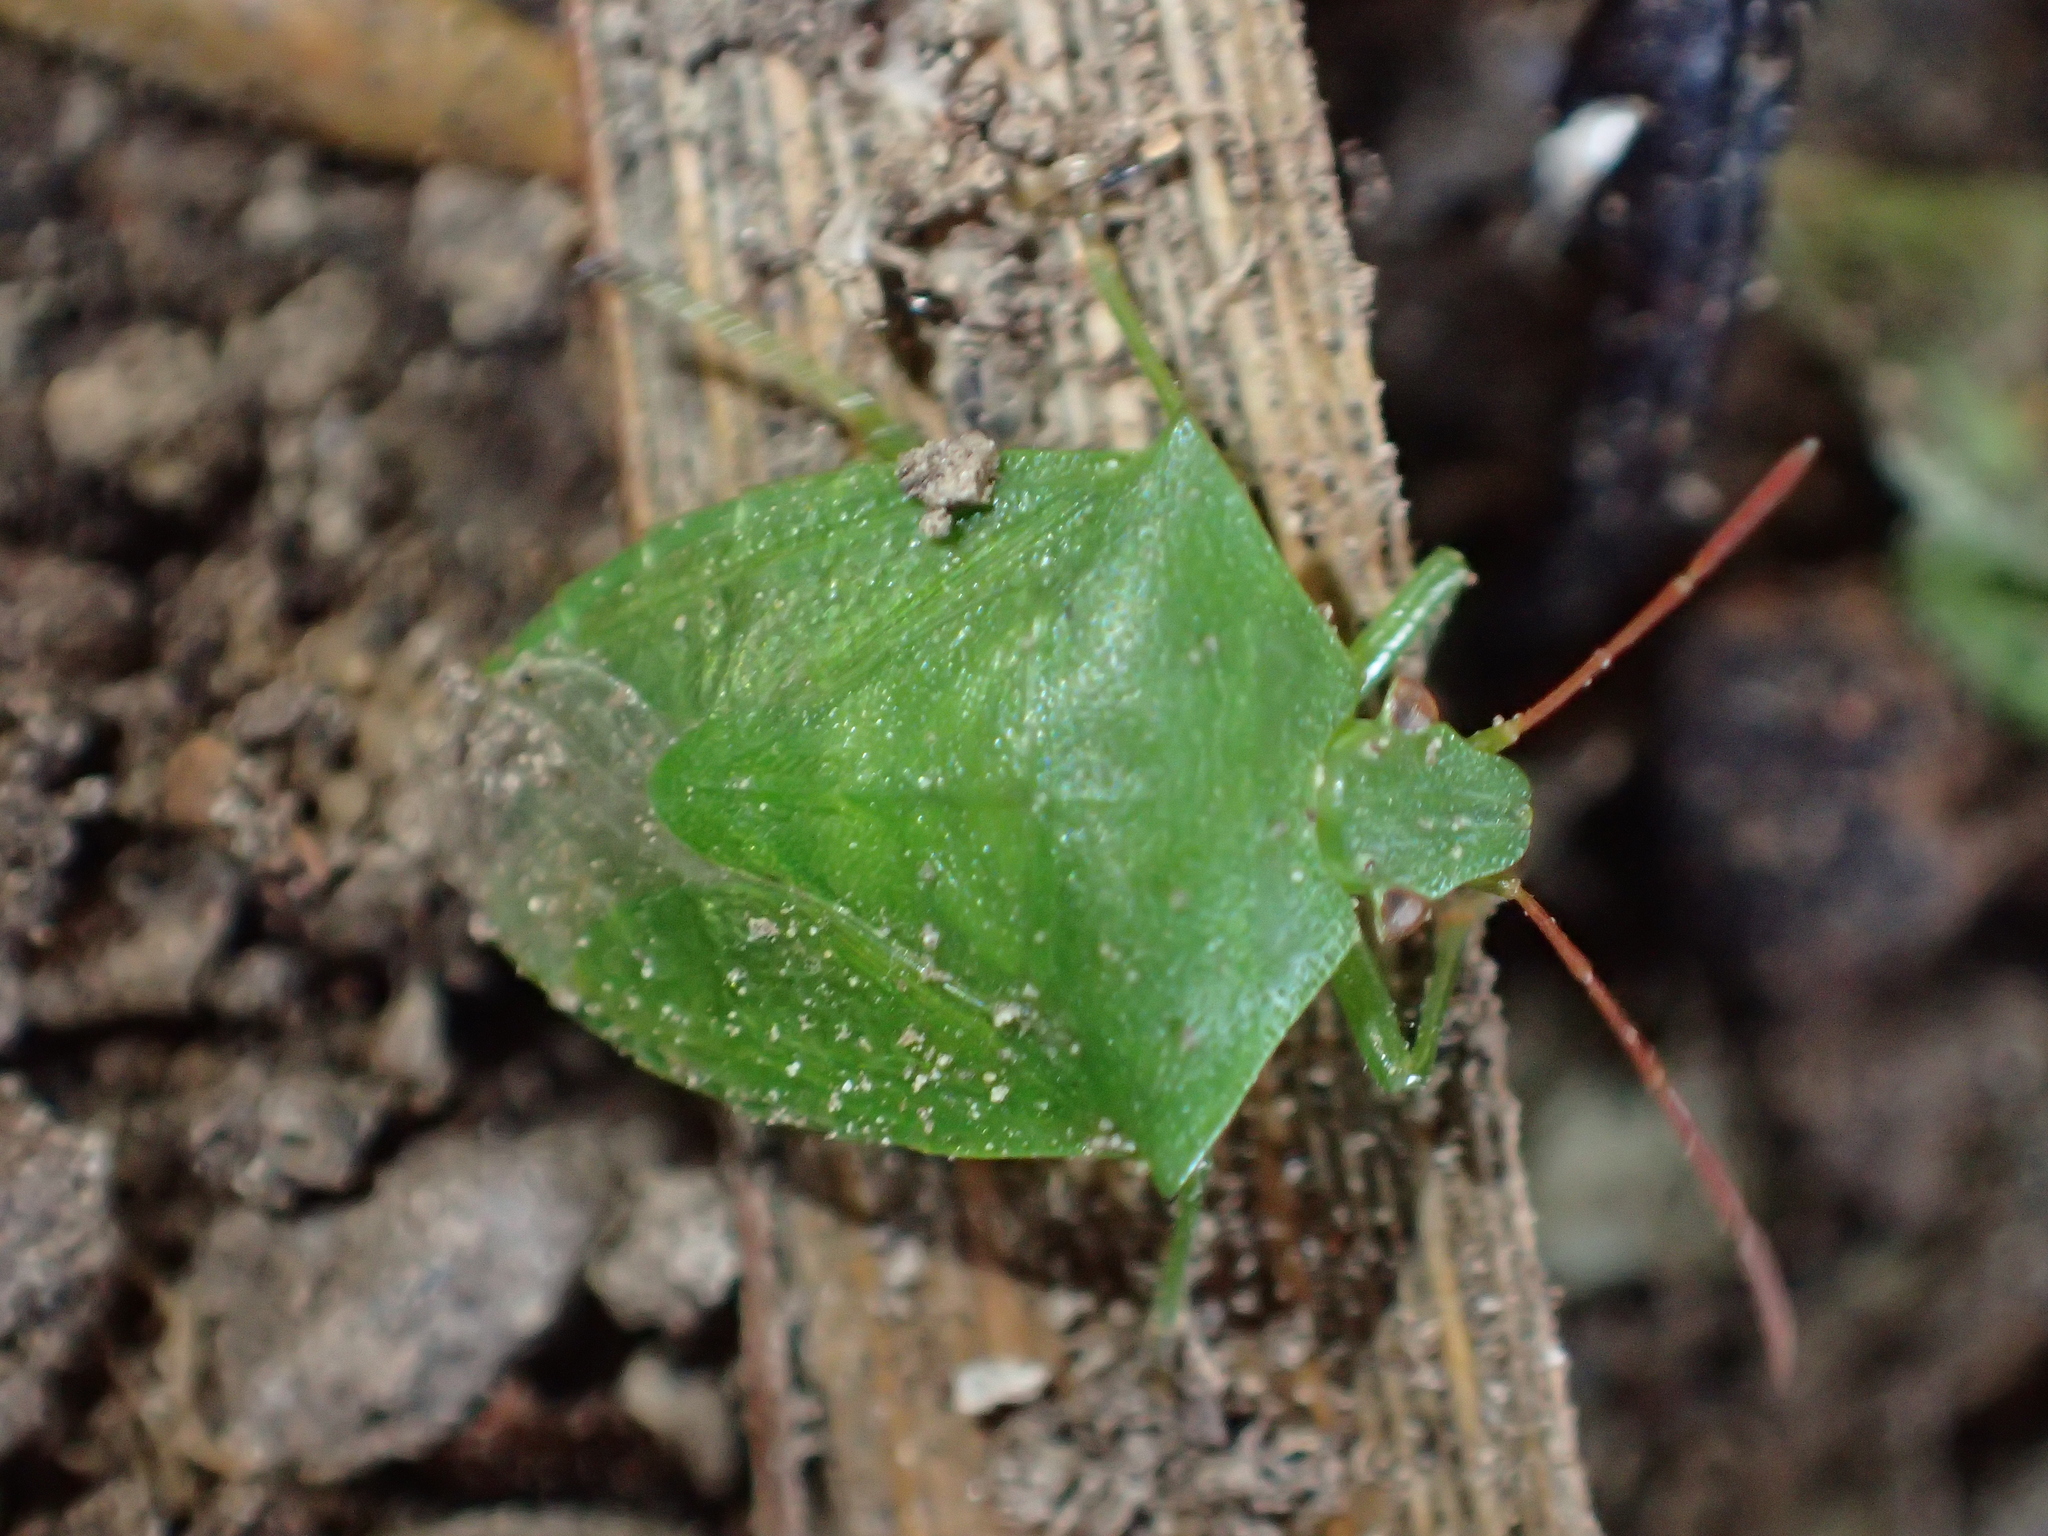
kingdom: Animalia
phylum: Arthropoda
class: Insecta
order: Hemiptera
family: Pentatomidae
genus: Cuspicona
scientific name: Cuspicona simplex
